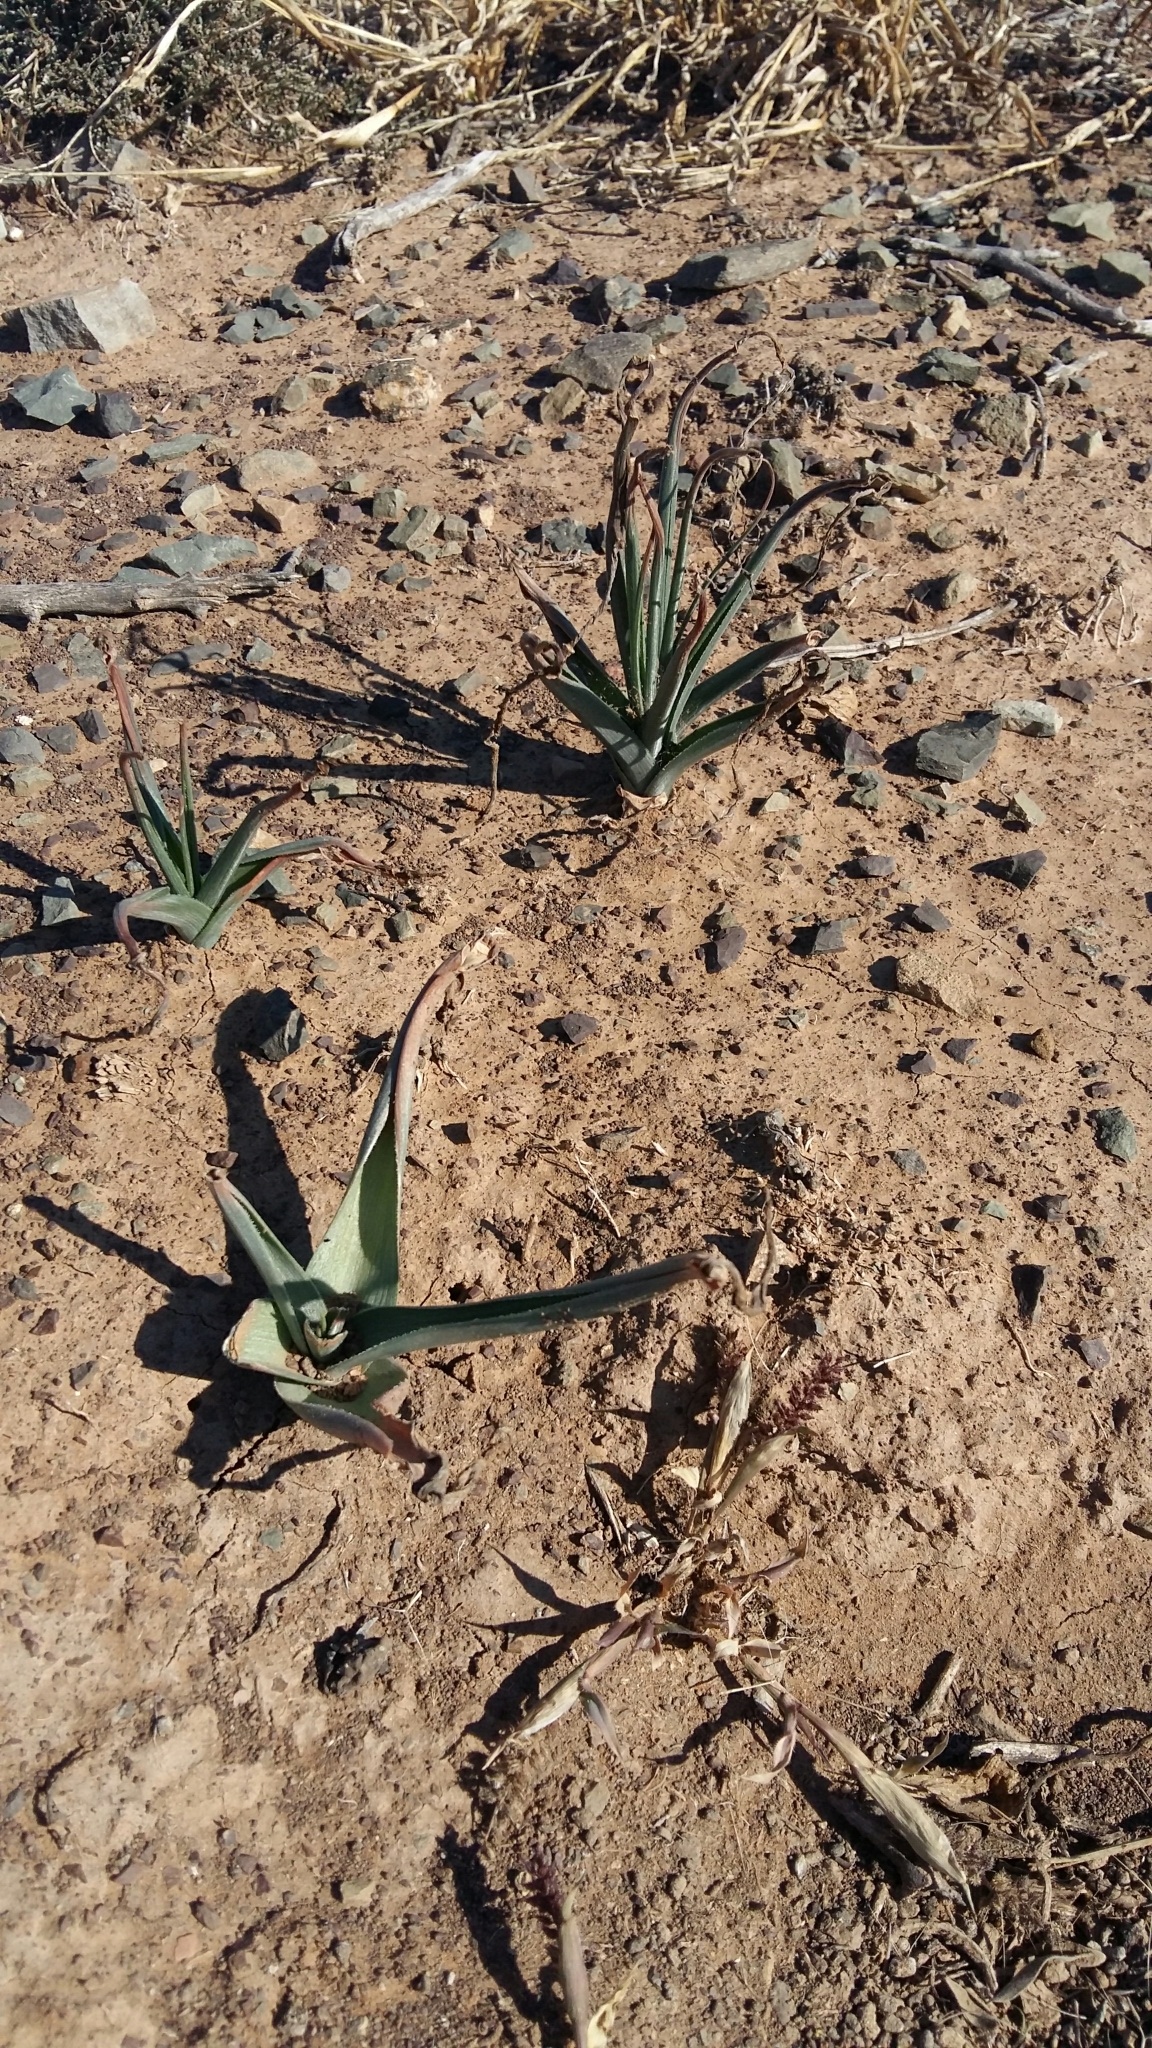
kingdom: Plantae
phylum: Tracheophyta
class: Liliopsida
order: Asparagales
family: Asparagaceae
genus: Albuca
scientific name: Albuca setosa
